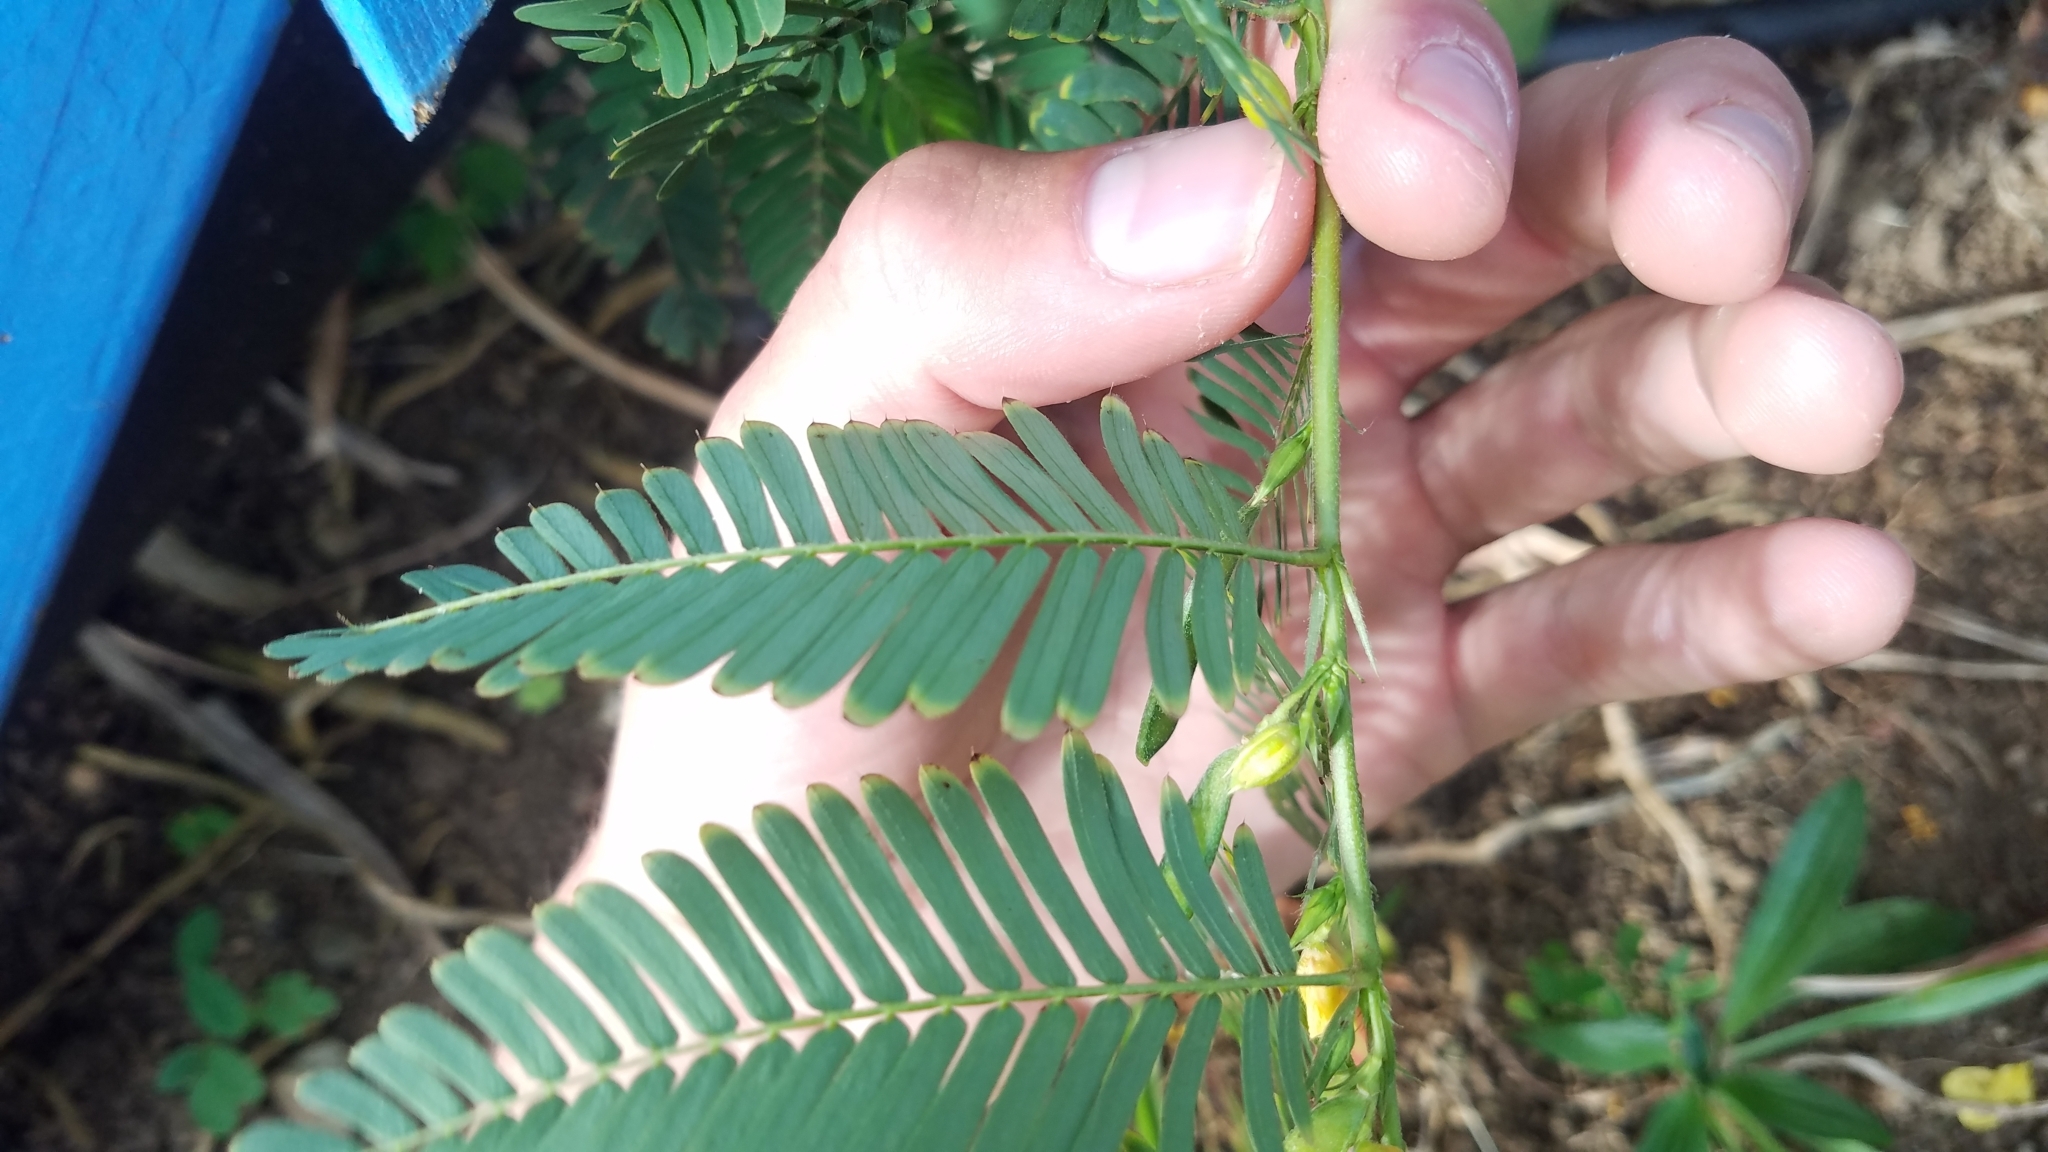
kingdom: Plantae
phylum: Tracheophyta
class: Magnoliopsida
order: Fabales
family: Fabaceae
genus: Chamaecrista
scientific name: Chamaecrista nictitans
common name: Sensitive cassia
